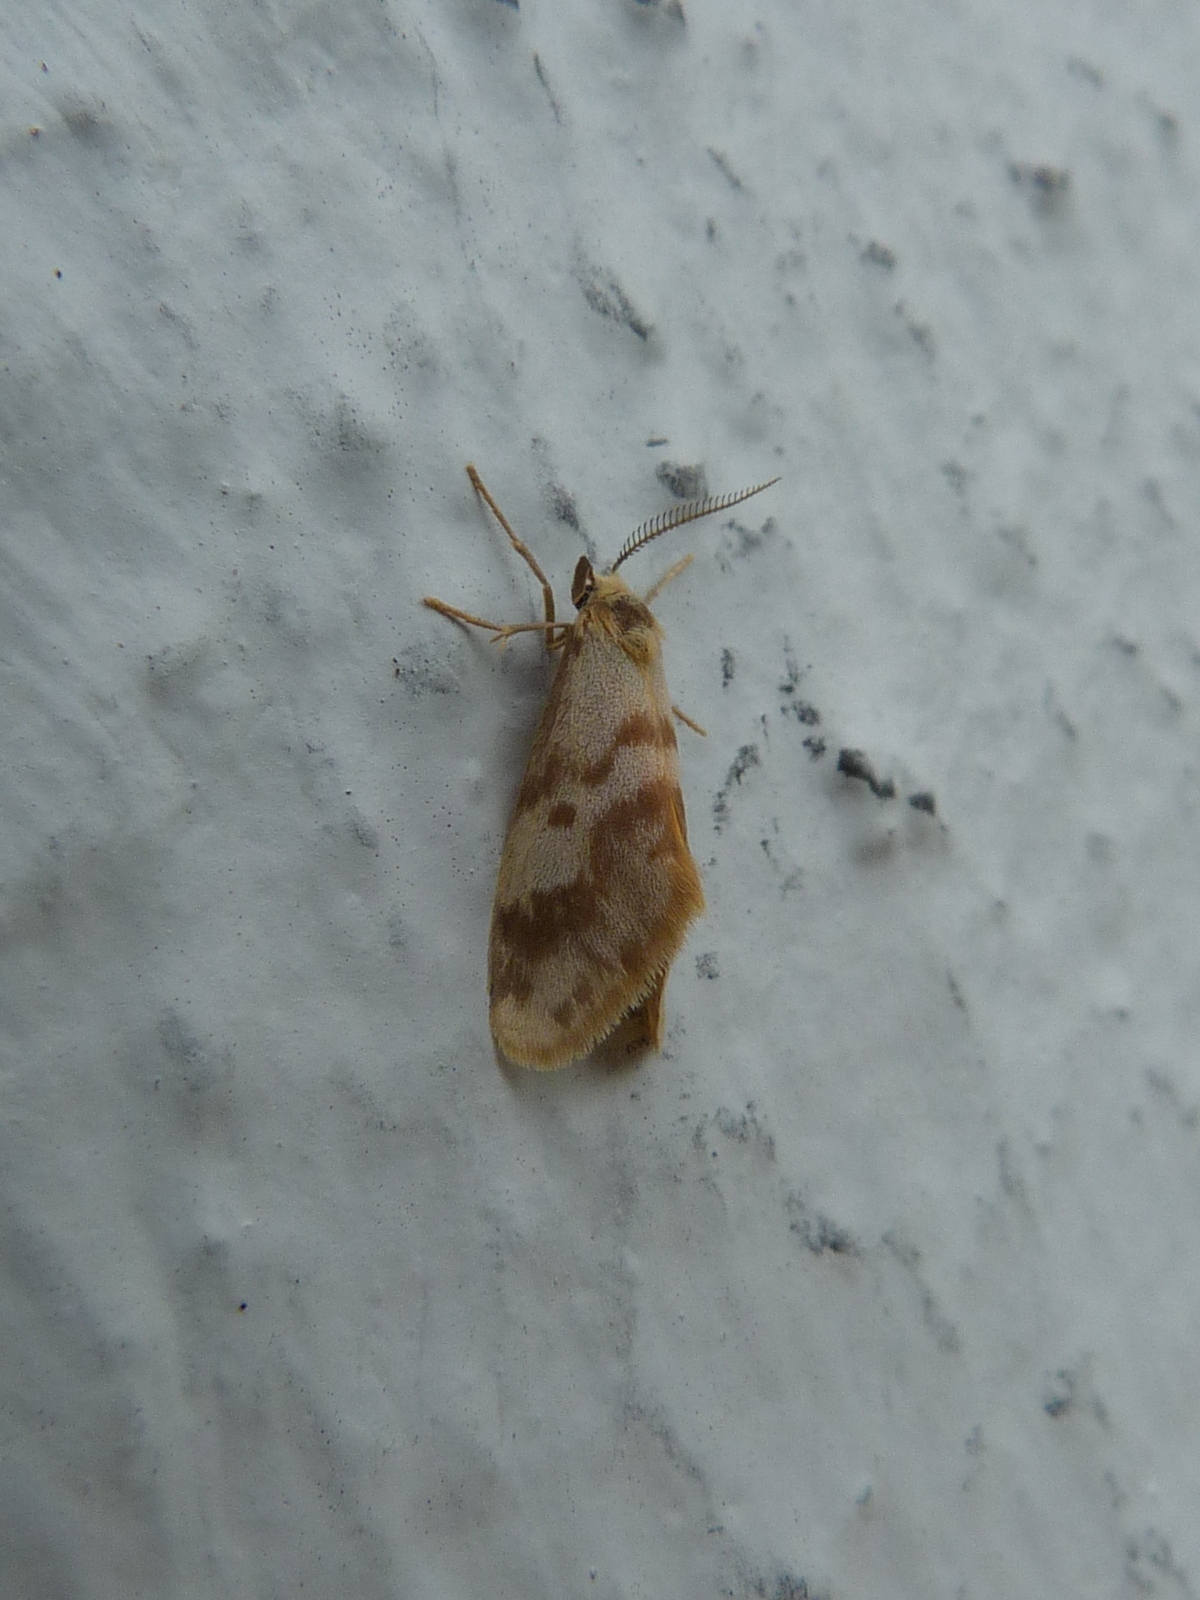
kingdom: Animalia
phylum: Arthropoda
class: Insecta
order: Lepidoptera
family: Erebidae
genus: Anestia
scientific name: Anestia
